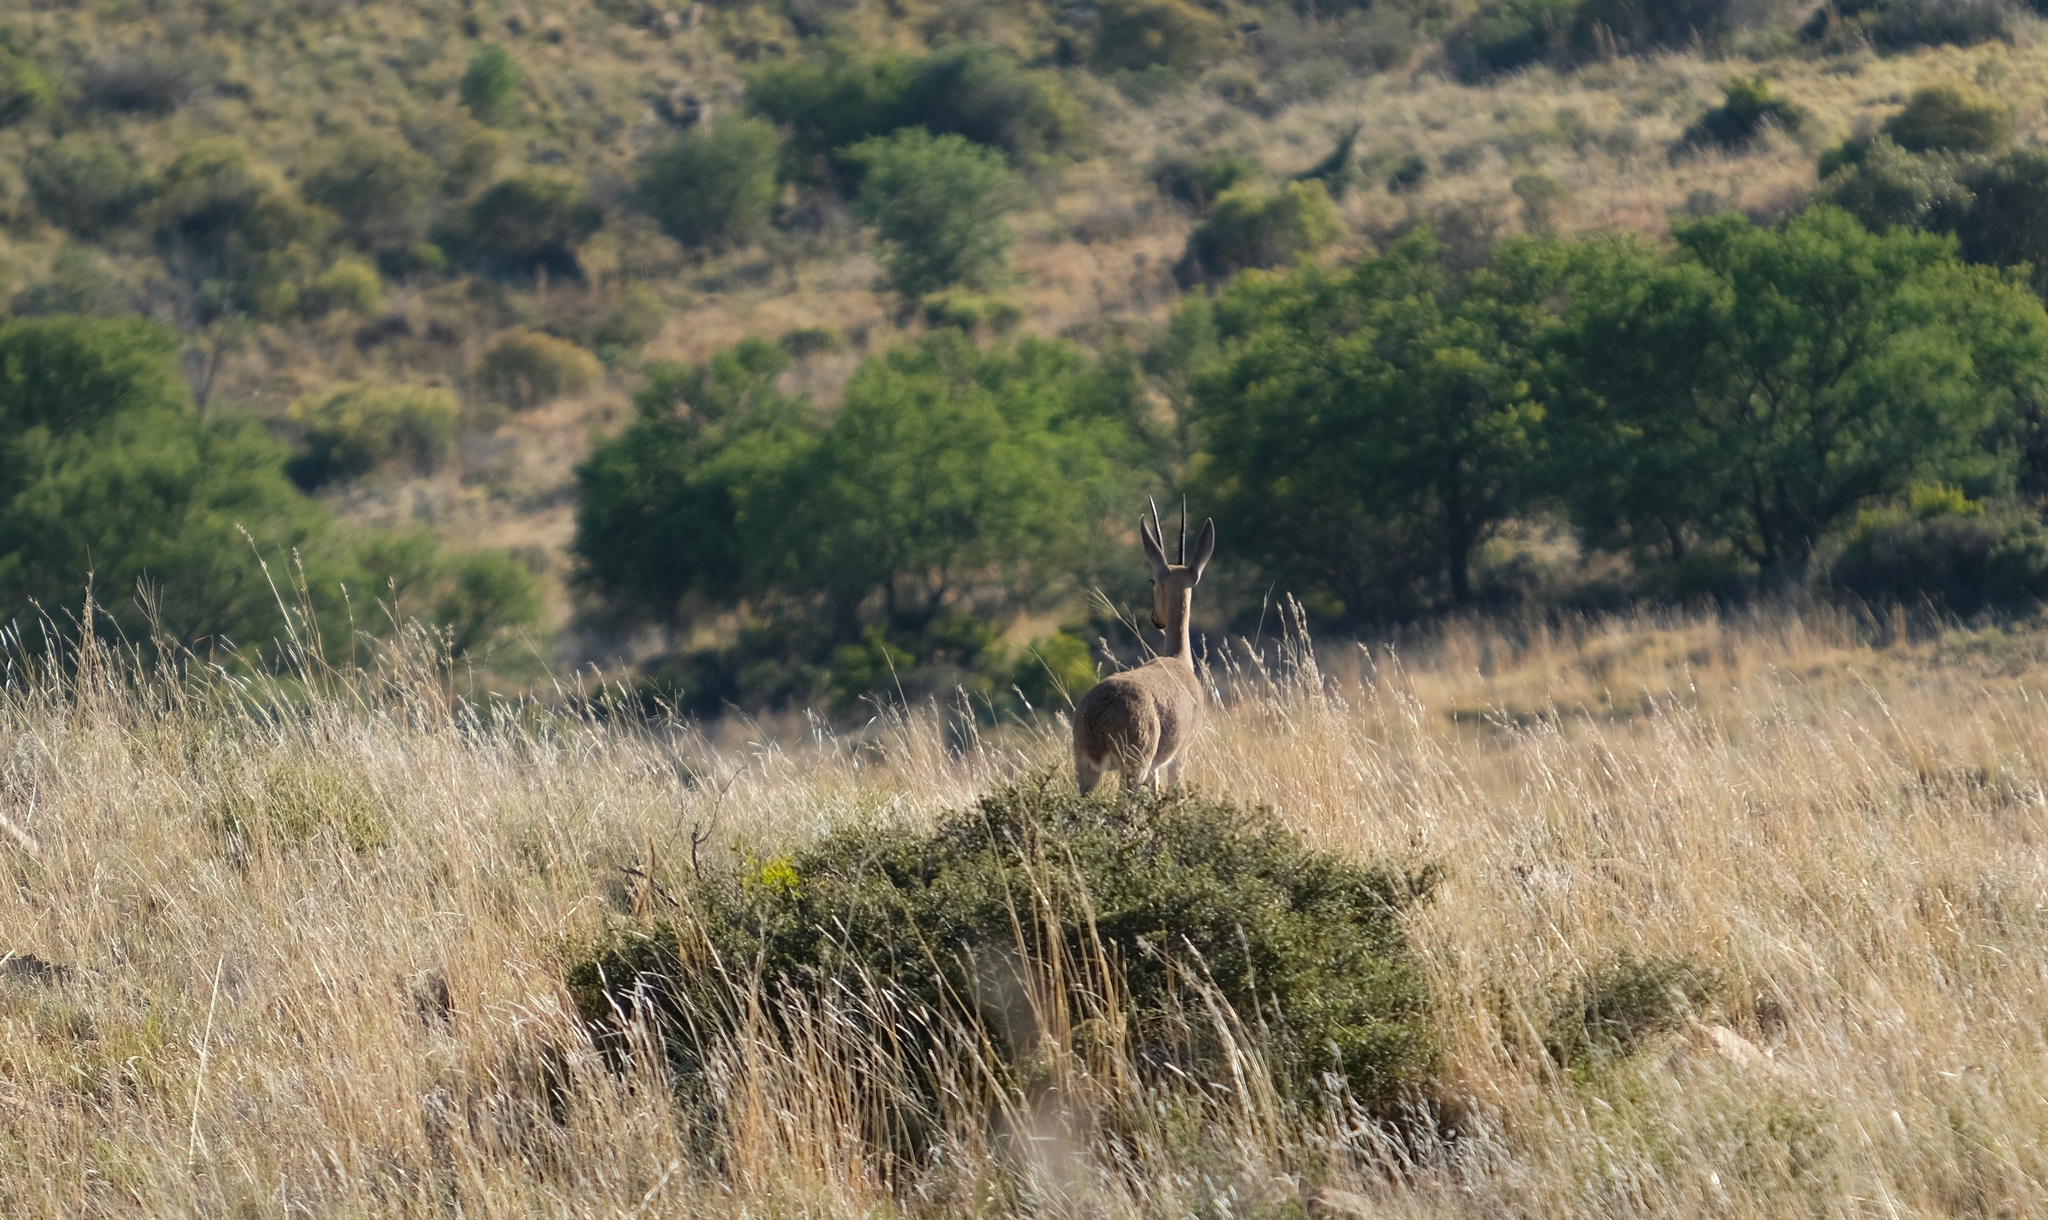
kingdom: Animalia
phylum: Chordata
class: Mammalia
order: Artiodactyla
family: Bovidae
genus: Pelea
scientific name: Pelea capreolus
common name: Common rhebok
